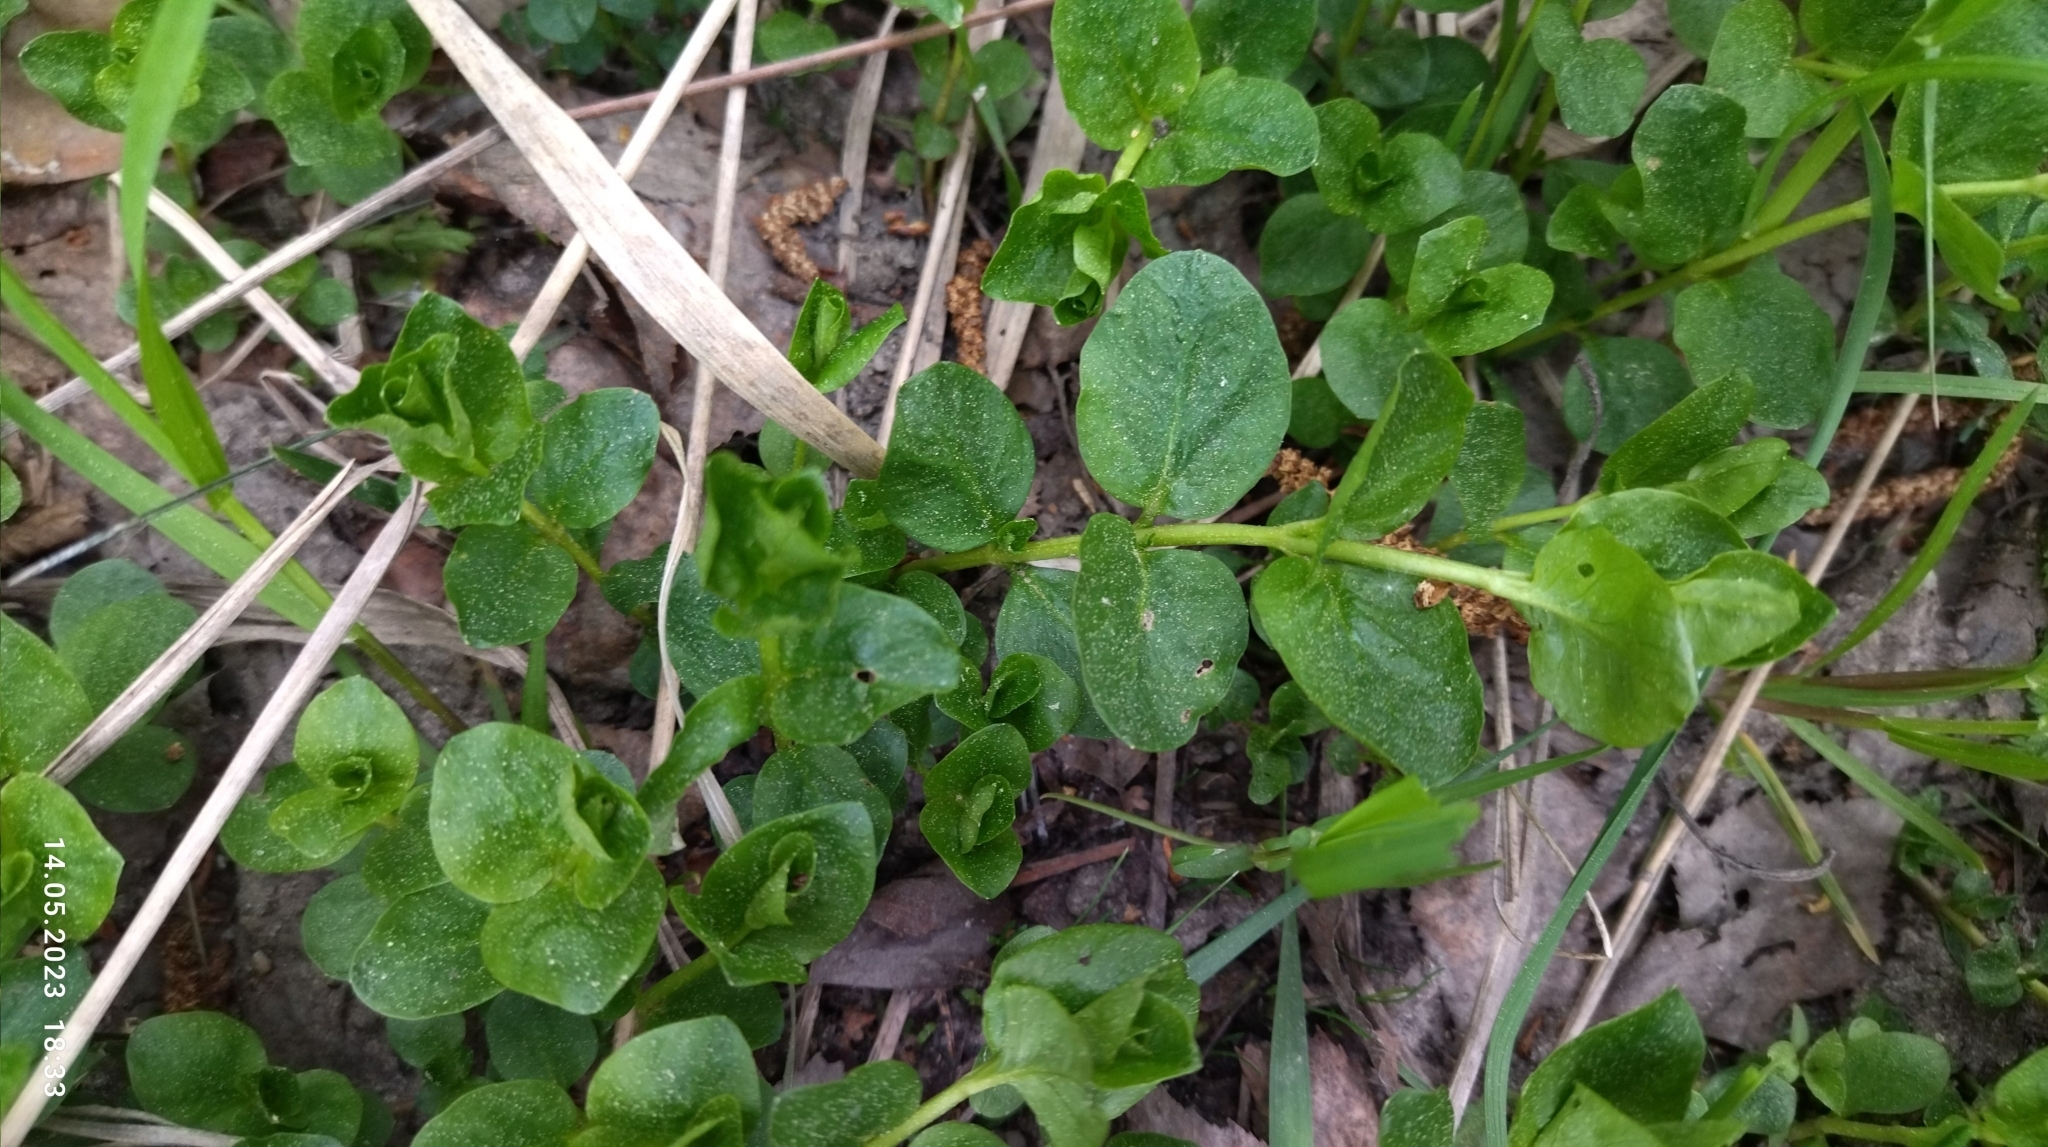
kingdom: Plantae
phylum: Tracheophyta
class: Magnoliopsida
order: Ericales
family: Primulaceae
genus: Lysimachia
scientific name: Lysimachia nummularia
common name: Moneywort
